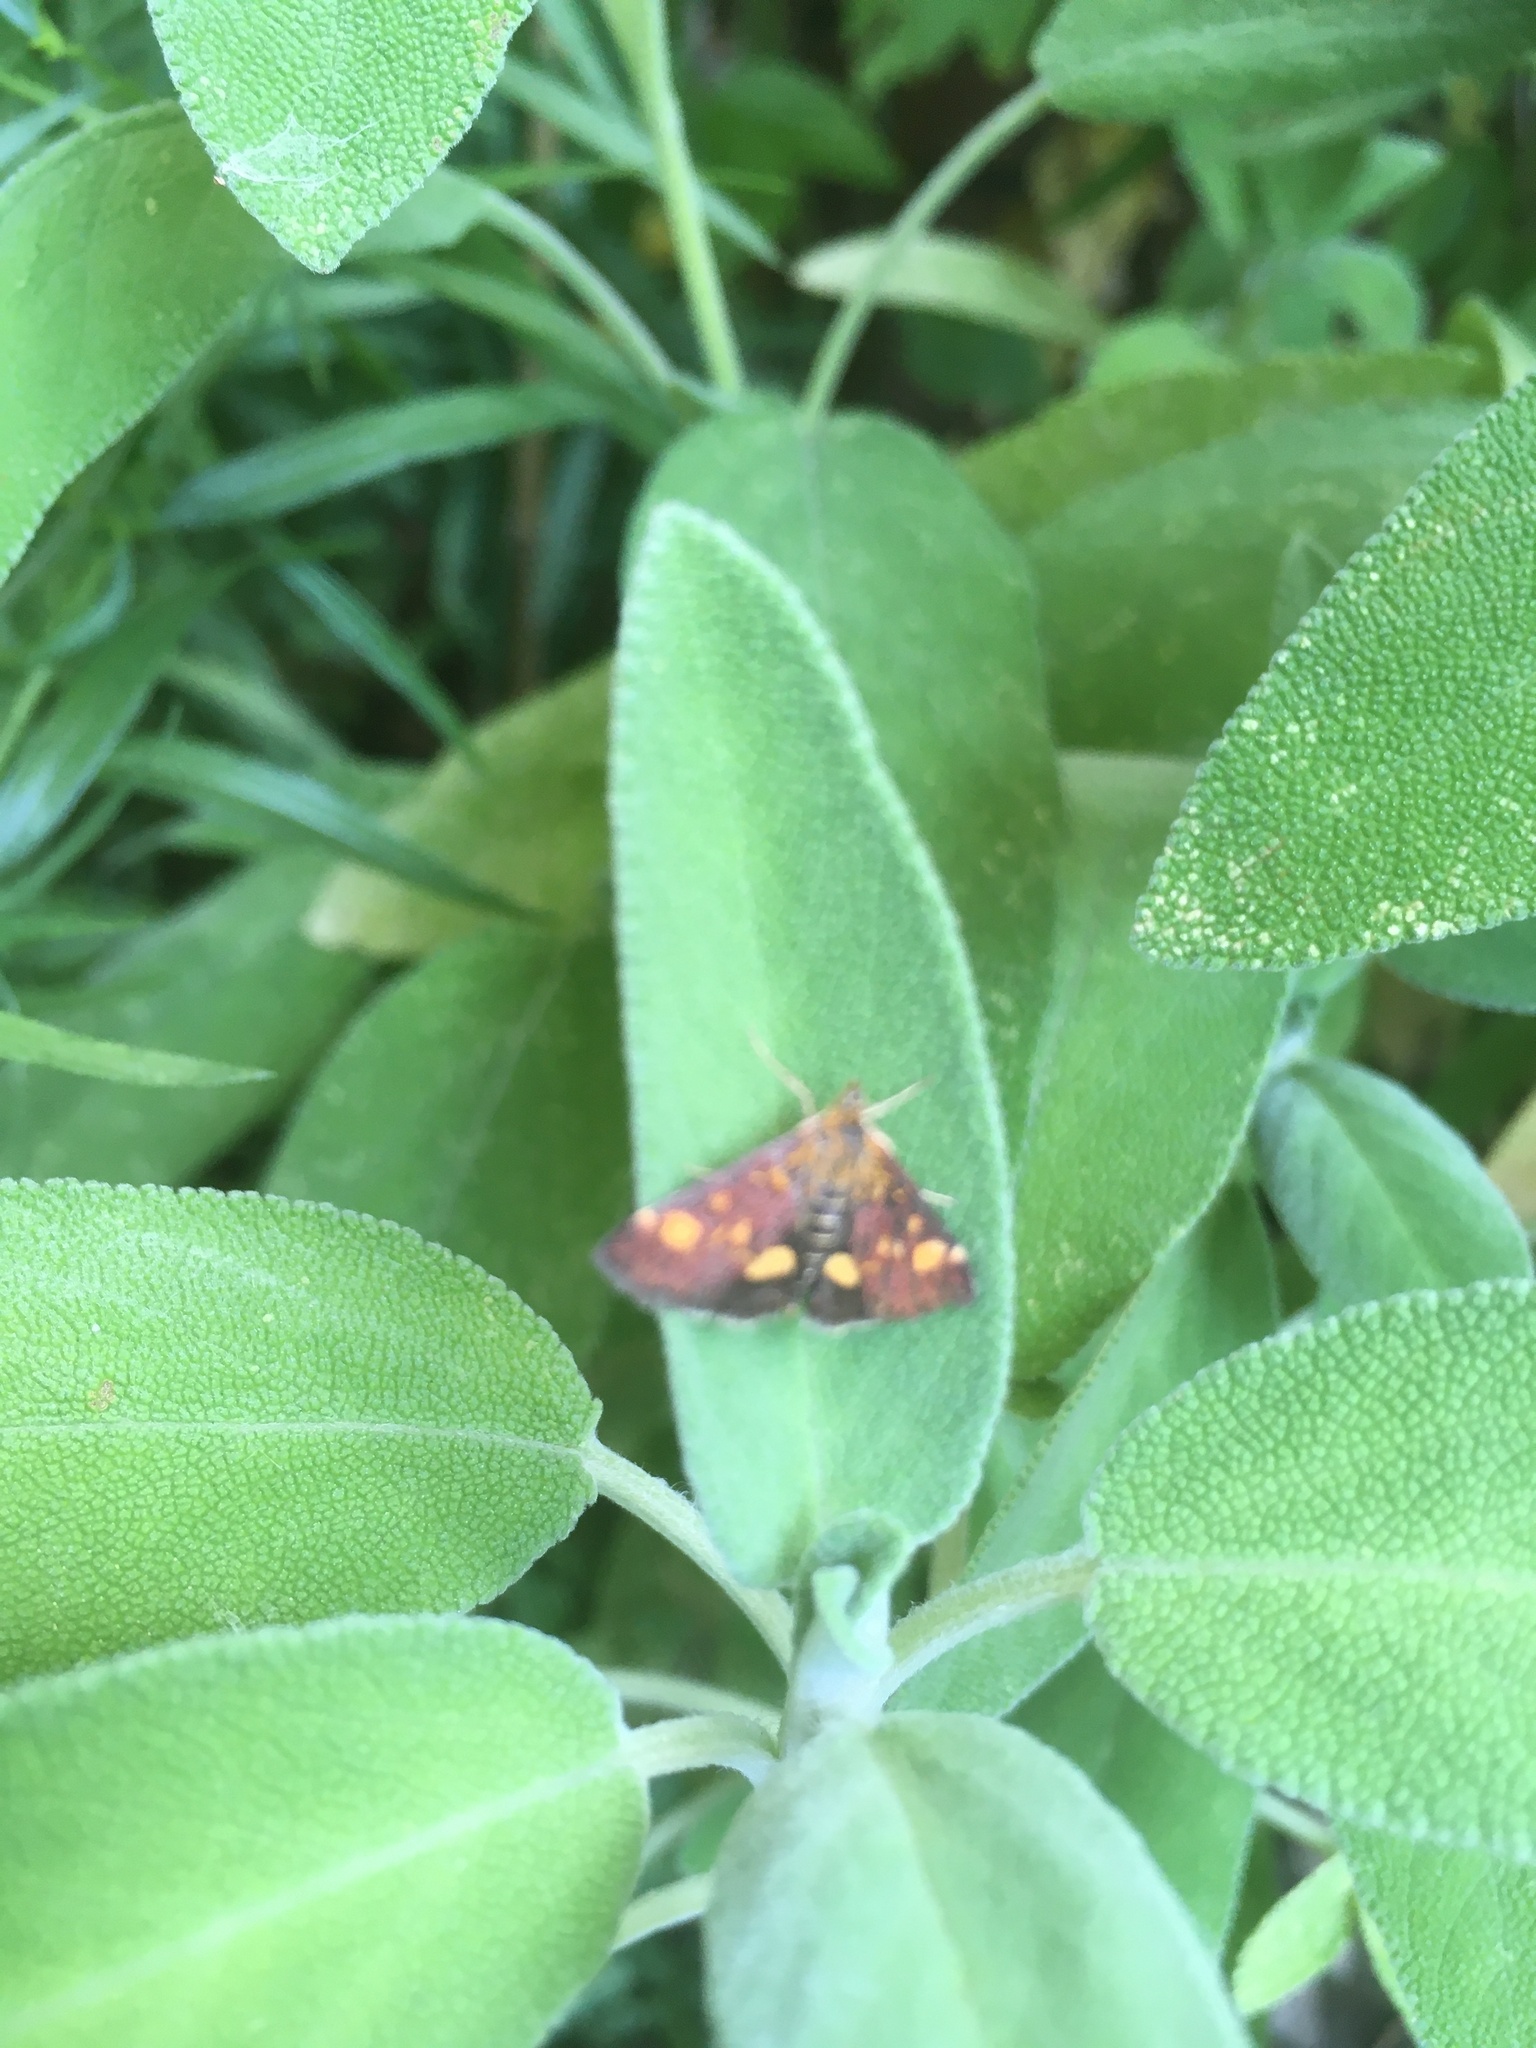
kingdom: Animalia
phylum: Arthropoda
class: Insecta
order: Lepidoptera
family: Crambidae
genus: Pyrausta
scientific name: Pyrausta aurata
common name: Small purple & gold
